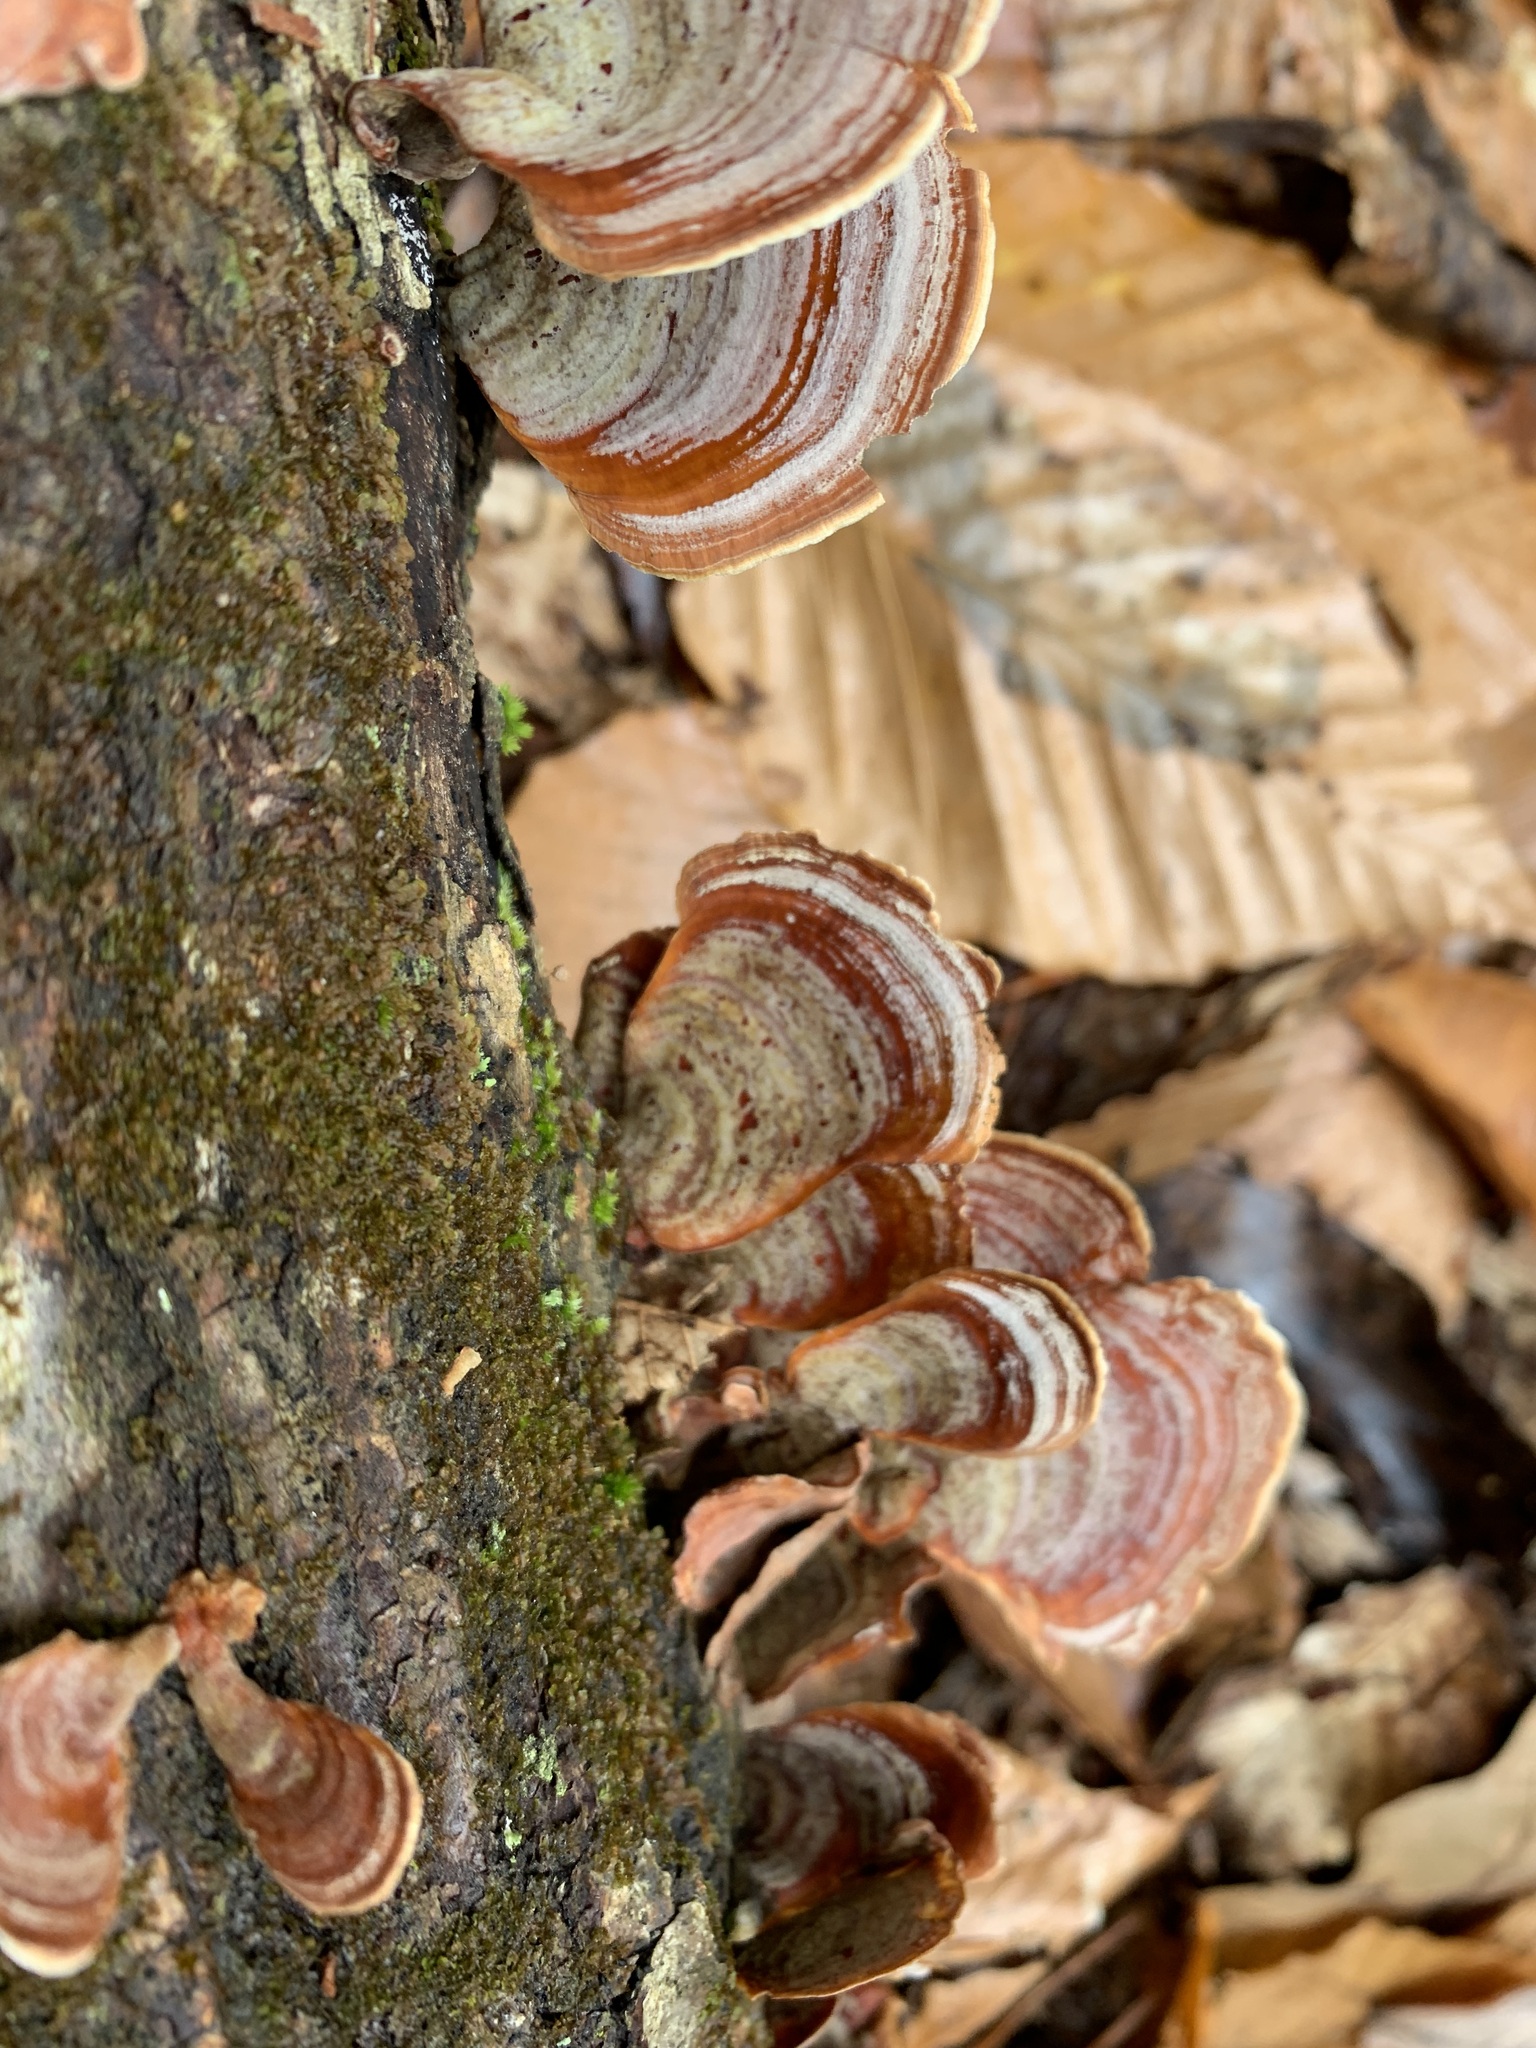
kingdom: Fungi
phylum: Basidiomycota
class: Agaricomycetes
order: Russulales
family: Stereaceae
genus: Stereum
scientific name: Stereum lobatum
